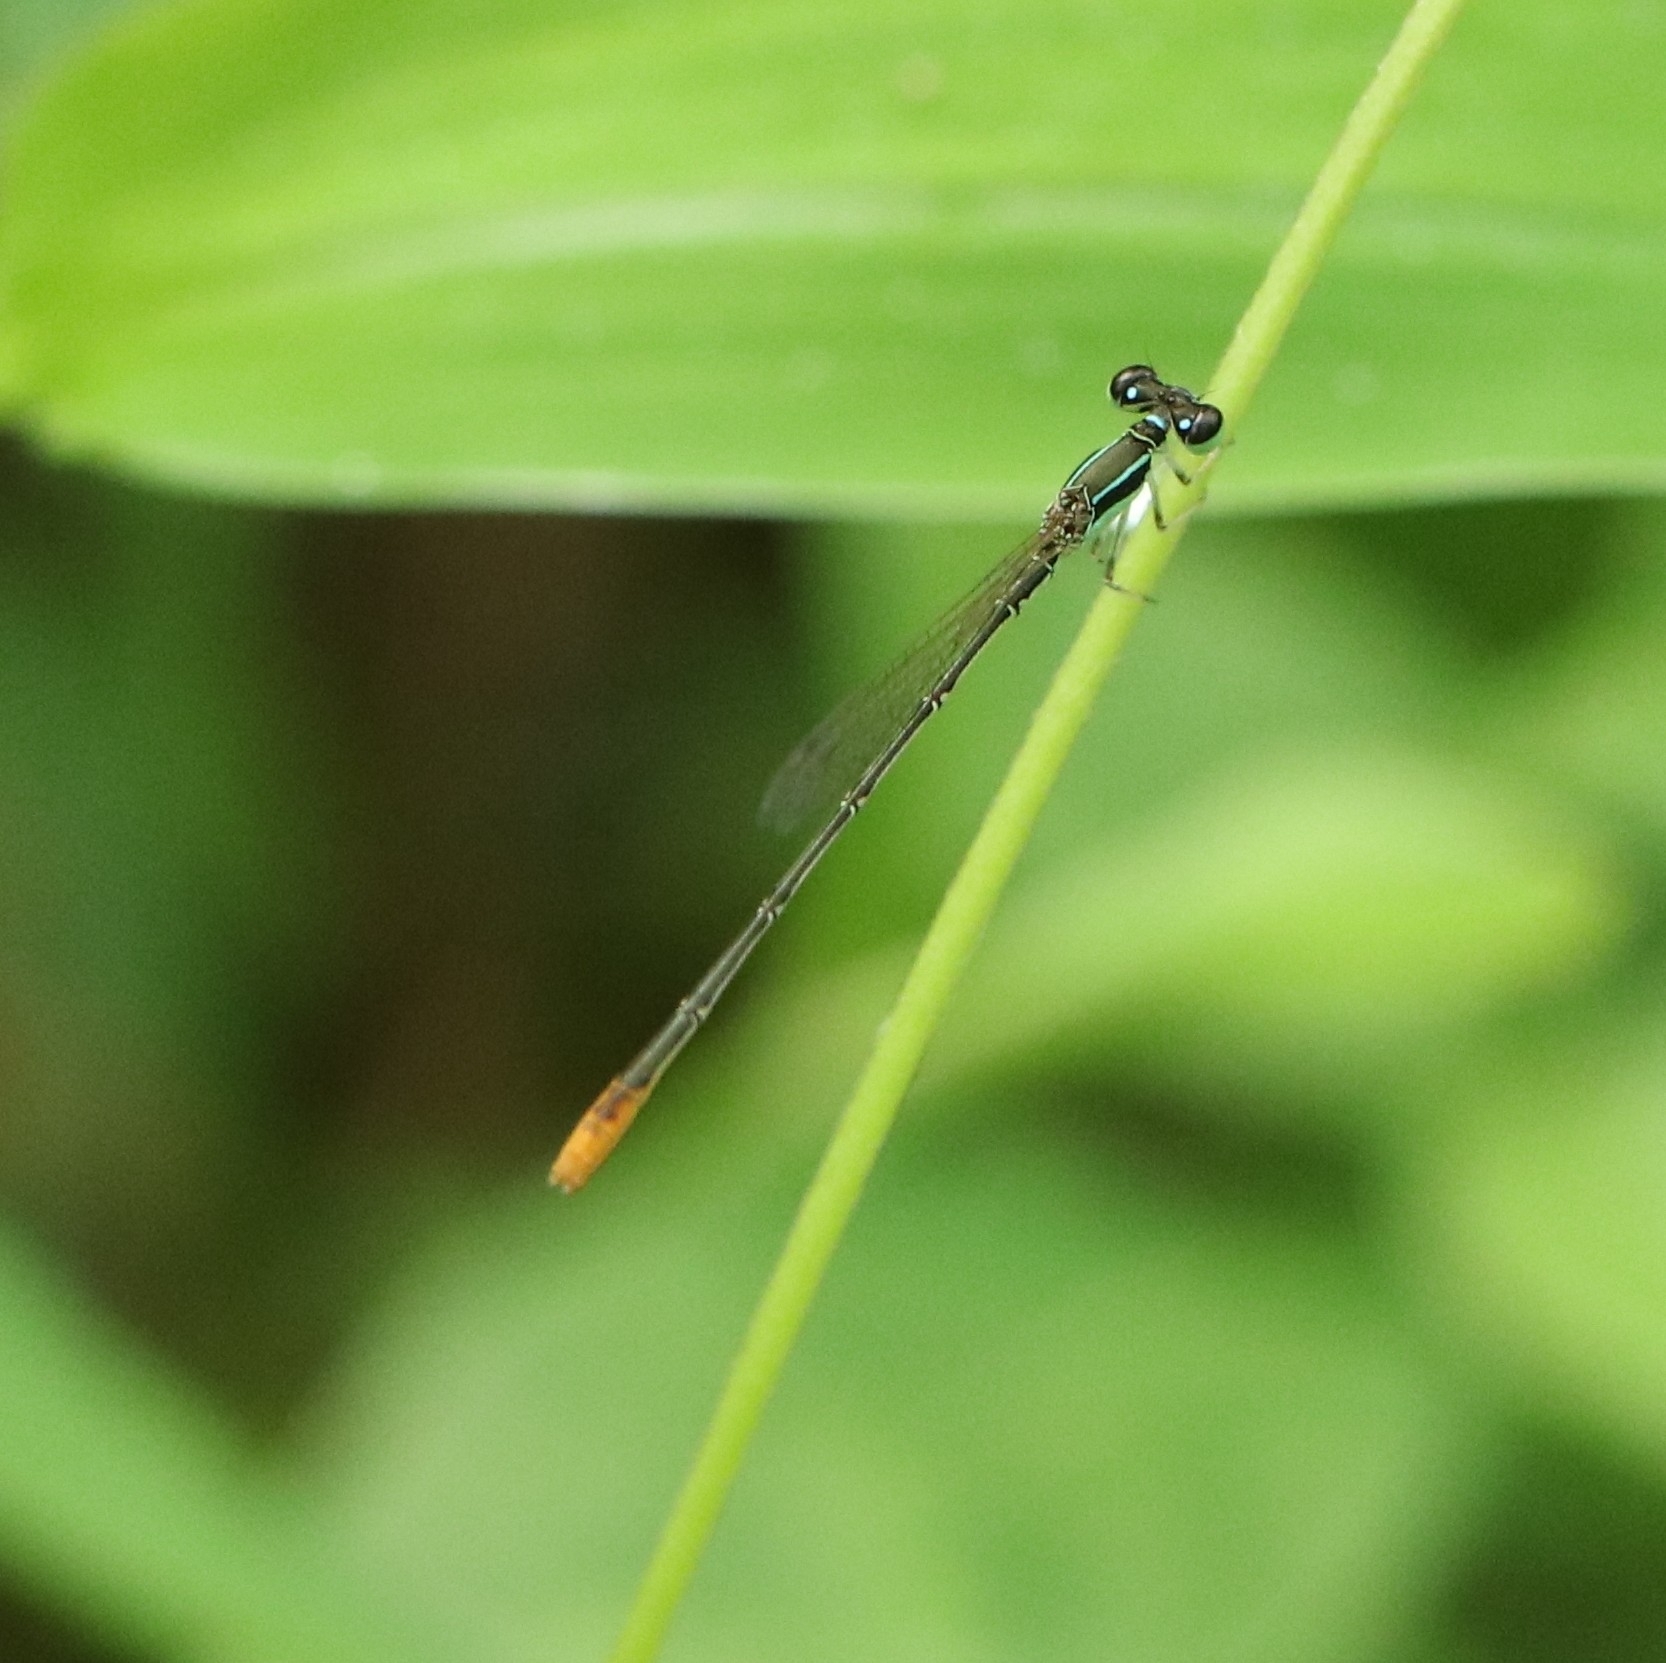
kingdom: Animalia
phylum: Arthropoda
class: Insecta
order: Odonata
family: Coenagrionidae
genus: Agriocnemis
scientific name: Agriocnemis pygmaea
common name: Pygmy wisp
